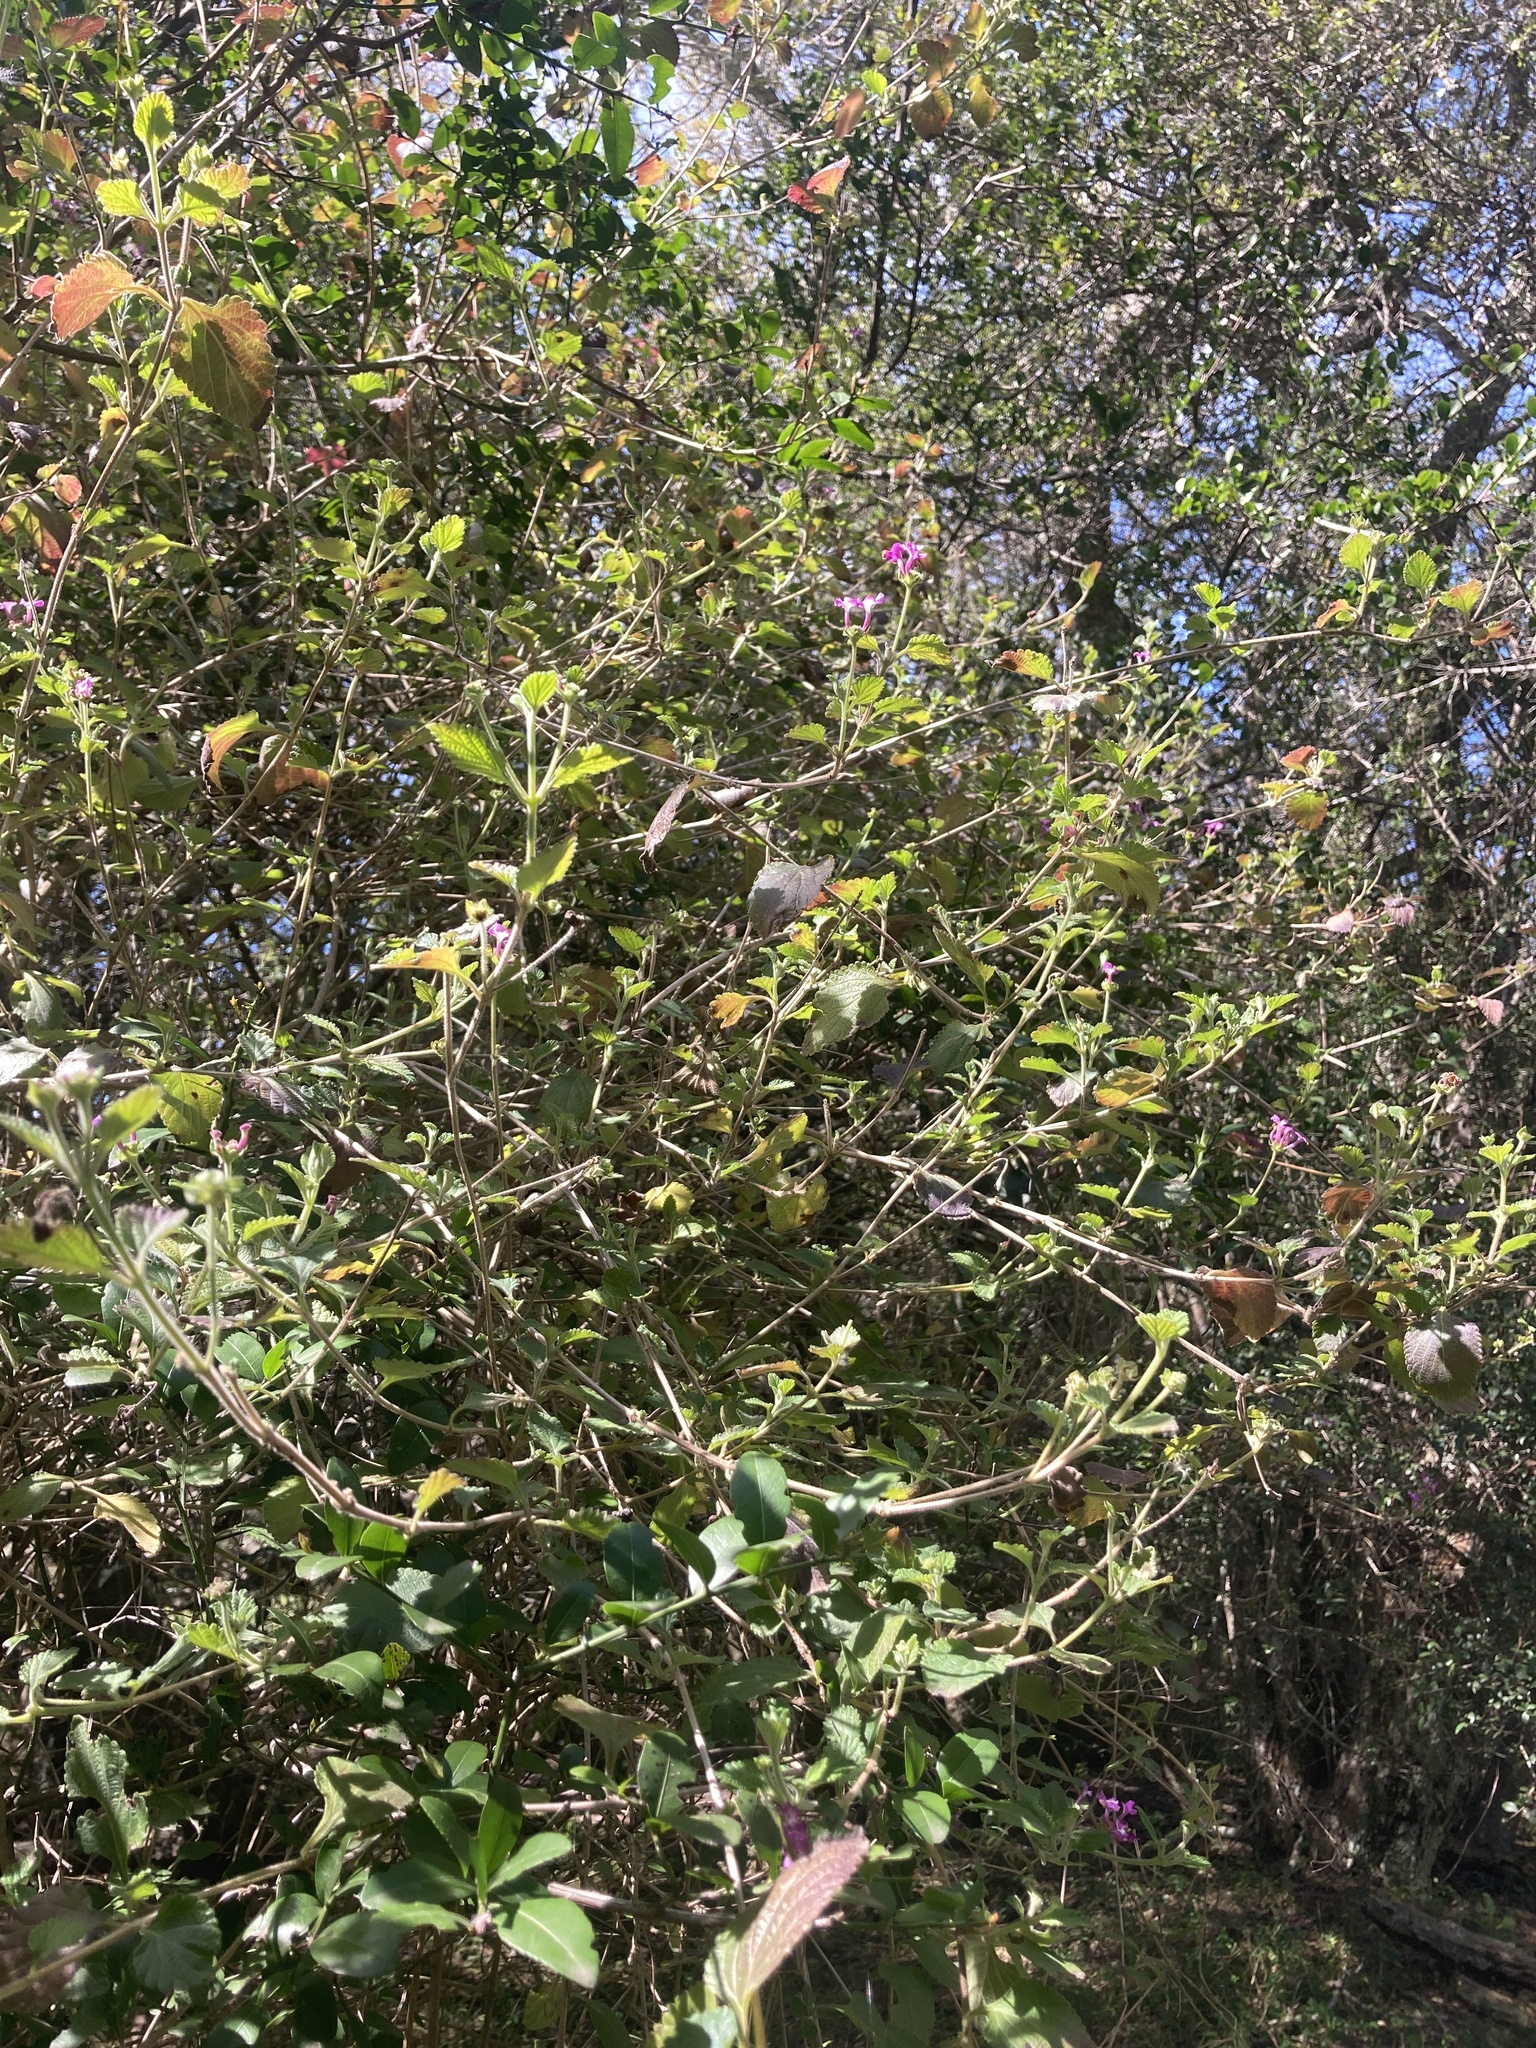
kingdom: Plantae
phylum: Tracheophyta
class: Magnoliopsida
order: Lamiales
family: Verbenaceae
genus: Lantana
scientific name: Lantana megapotamica
